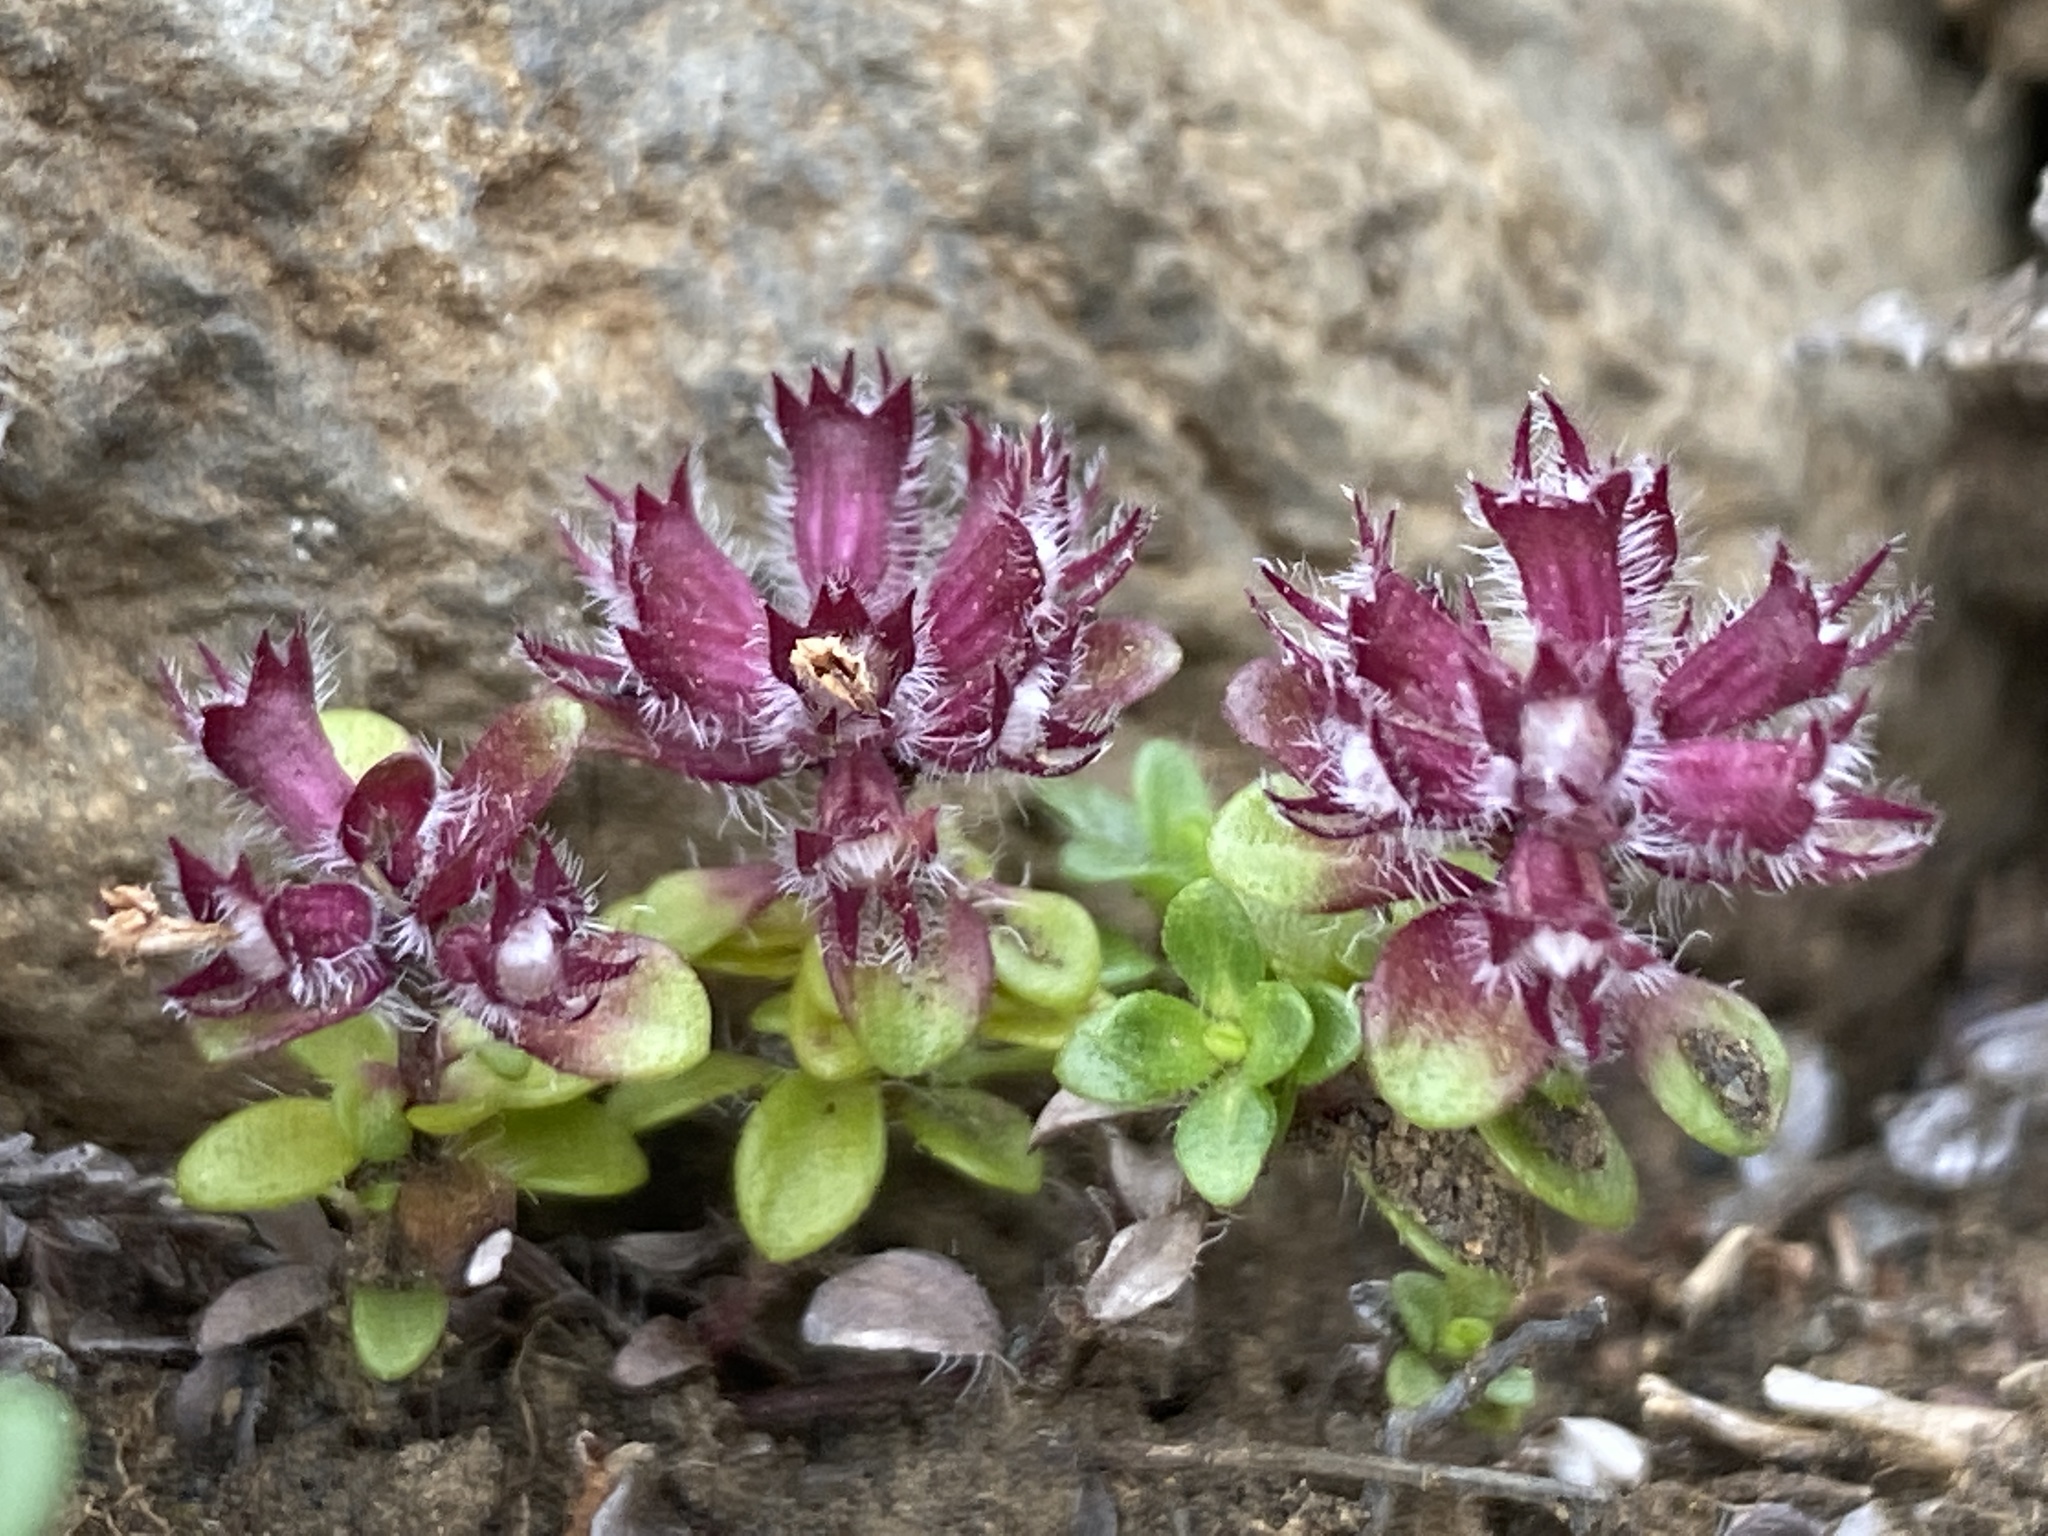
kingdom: Plantae
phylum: Tracheophyta
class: Magnoliopsida
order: Lamiales
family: Lamiaceae
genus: Thymus
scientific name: Thymus praecox
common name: Wild thyme
